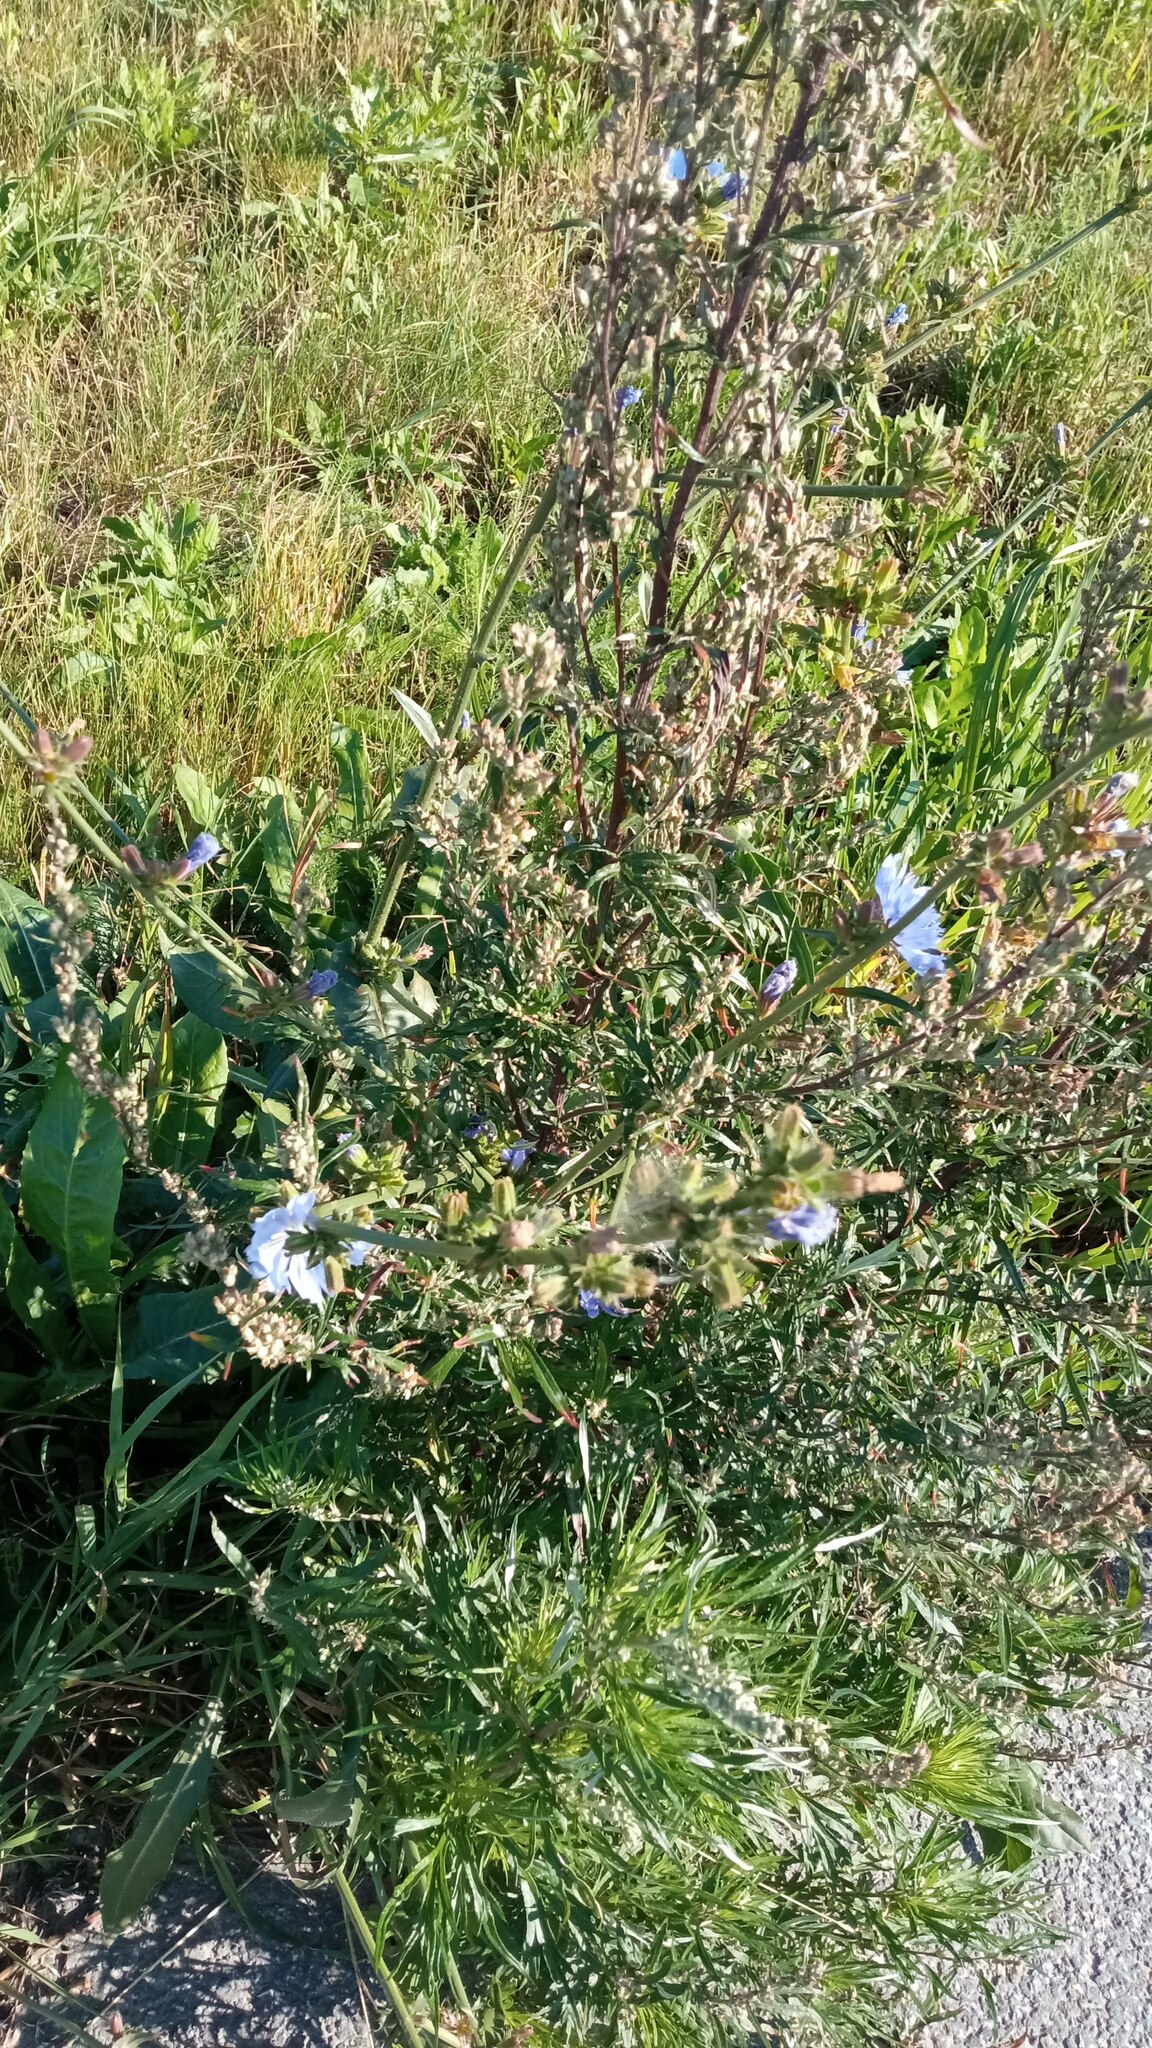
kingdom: Plantae
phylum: Tracheophyta
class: Magnoliopsida
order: Asterales
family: Asteraceae
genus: Cichorium
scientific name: Cichorium intybus
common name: Chicory
